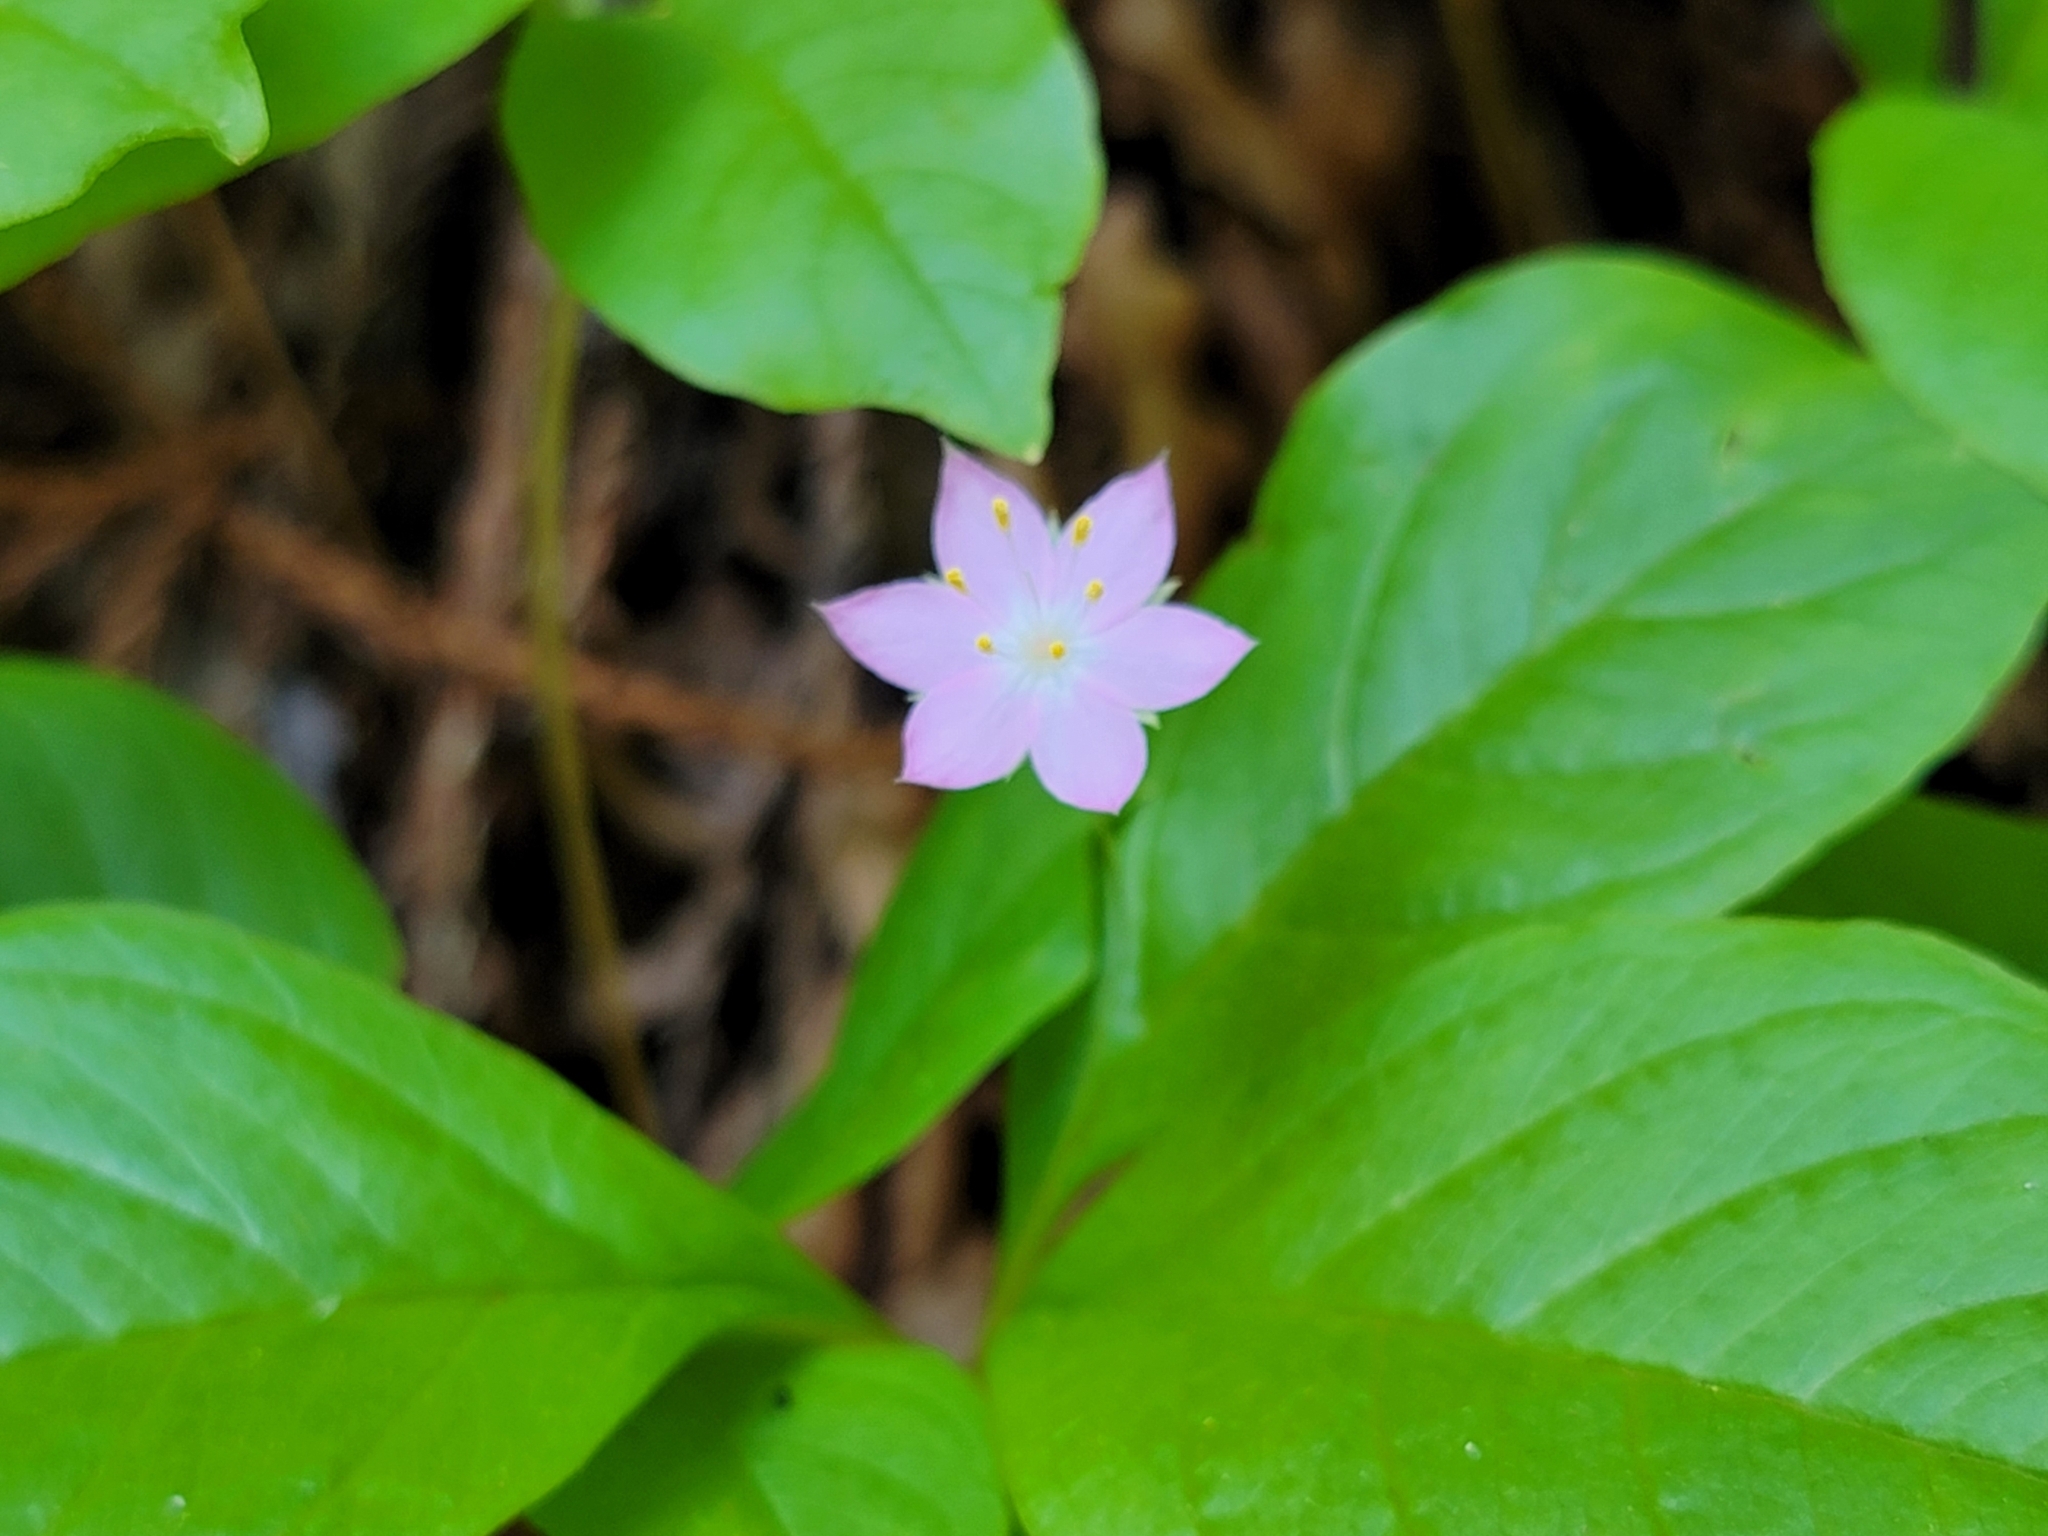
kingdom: Plantae
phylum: Tracheophyta
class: Magnoliopsida
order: Ericales
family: Primulaceae
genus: Lysimachia
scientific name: Lysimachia latifolia
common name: Pacific starflower
